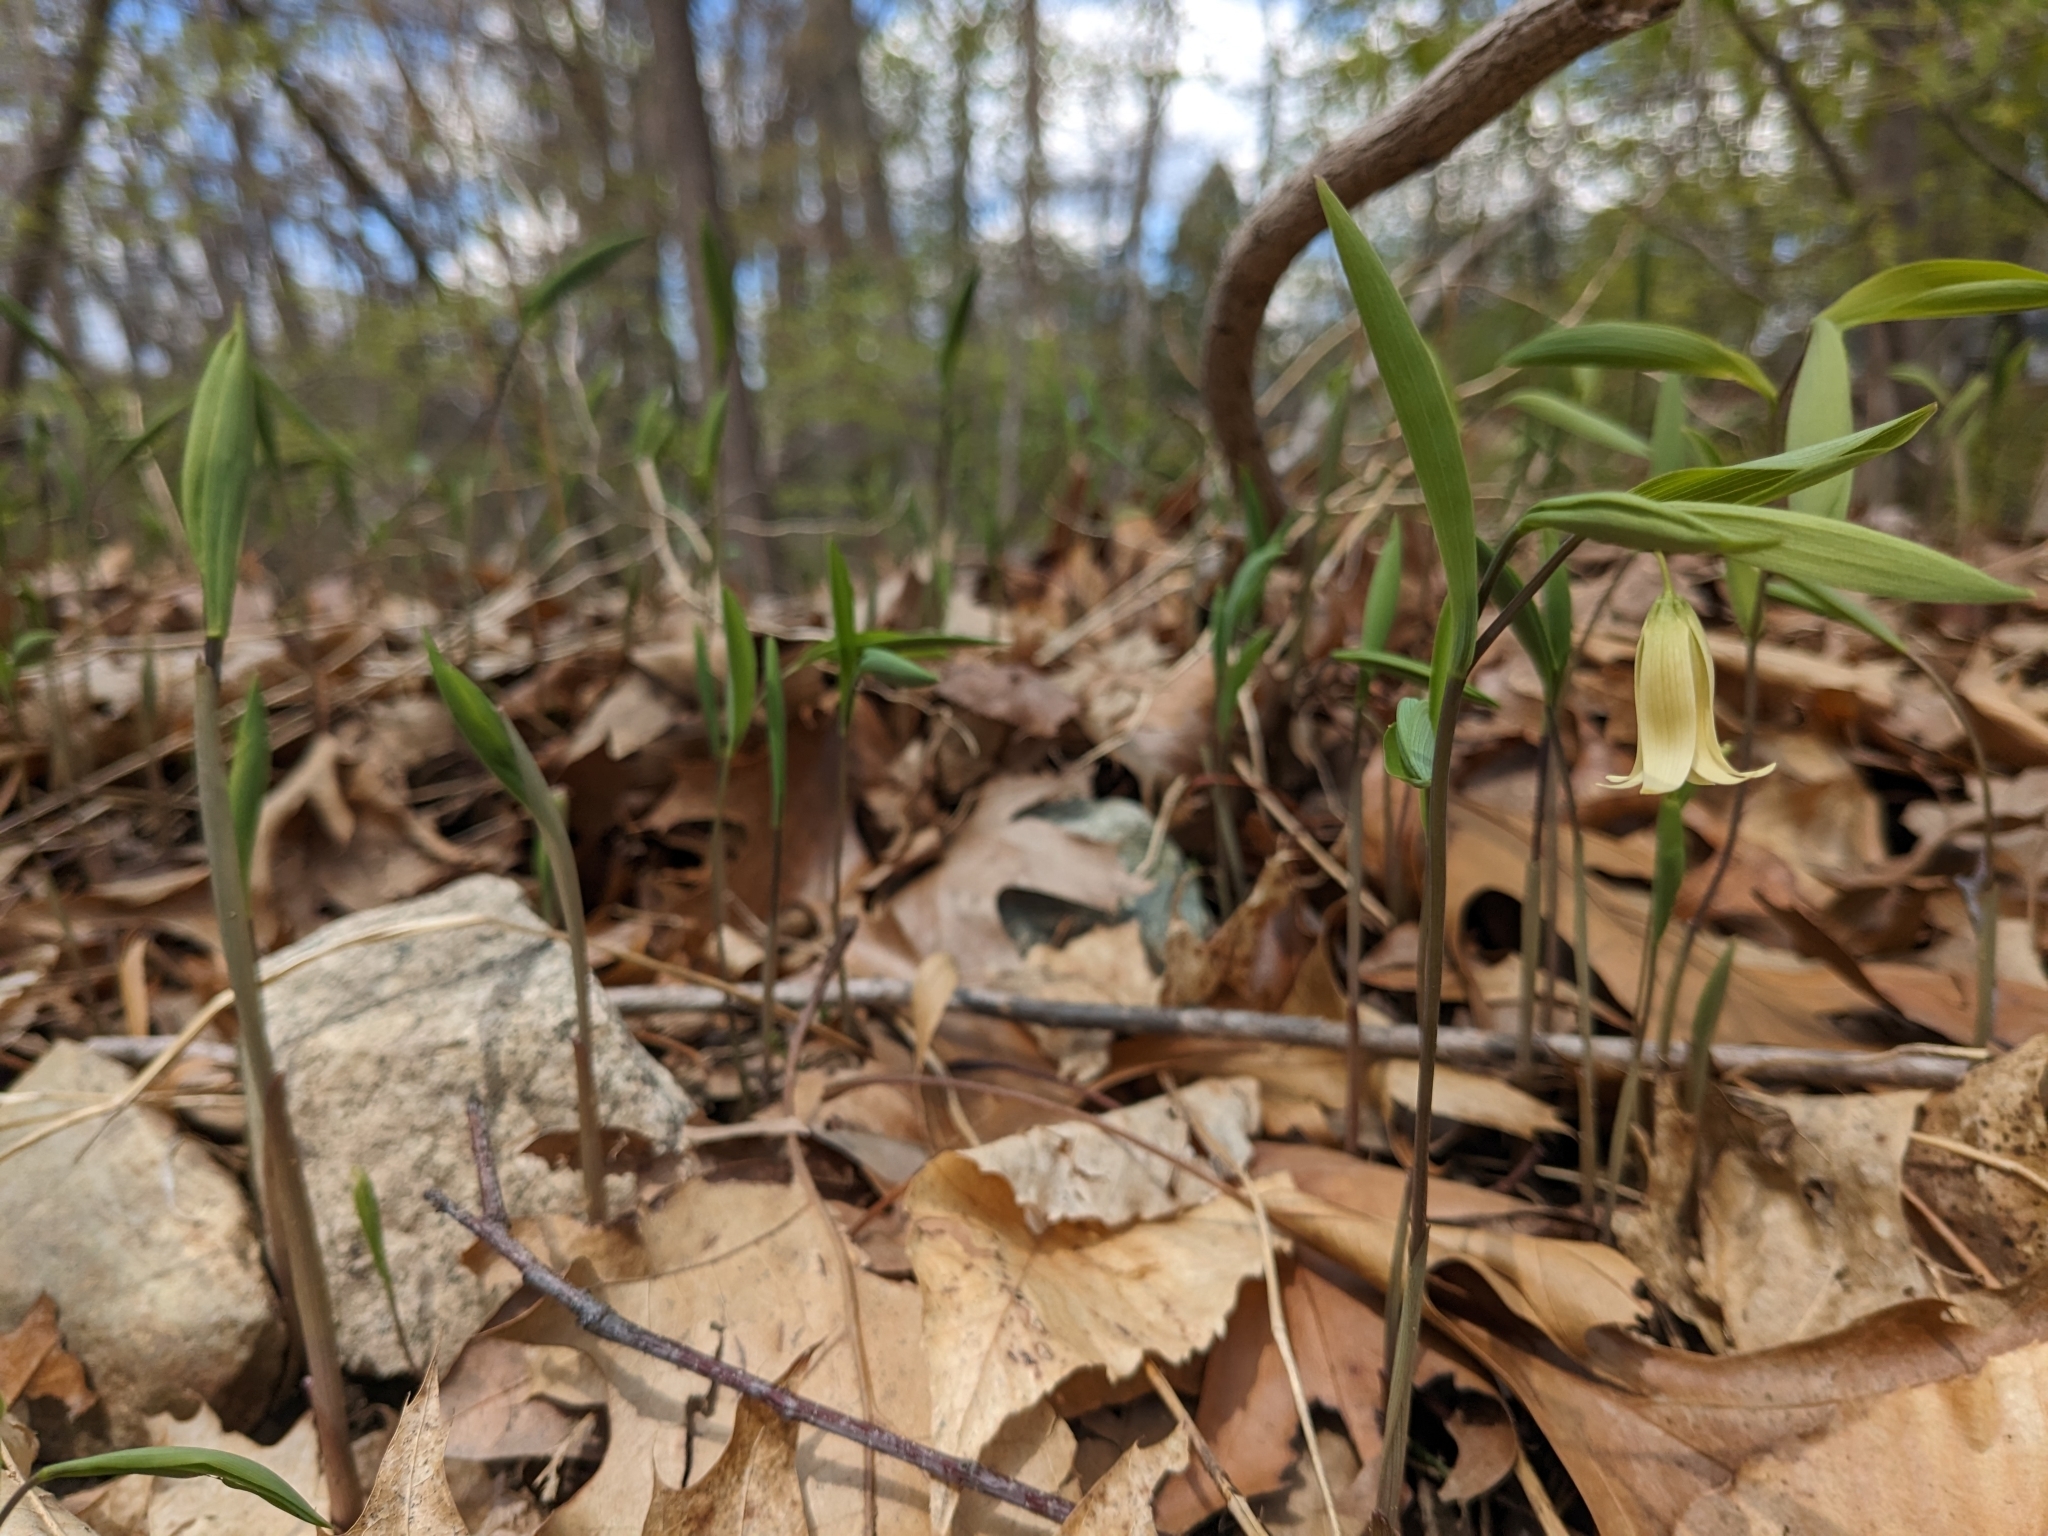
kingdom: Plantae
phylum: Tracheophyta
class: Liliopsida
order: Liliales
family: Colchicaceae
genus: Uvularia
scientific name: Uvularia sessilifolia
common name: Straw-lily
